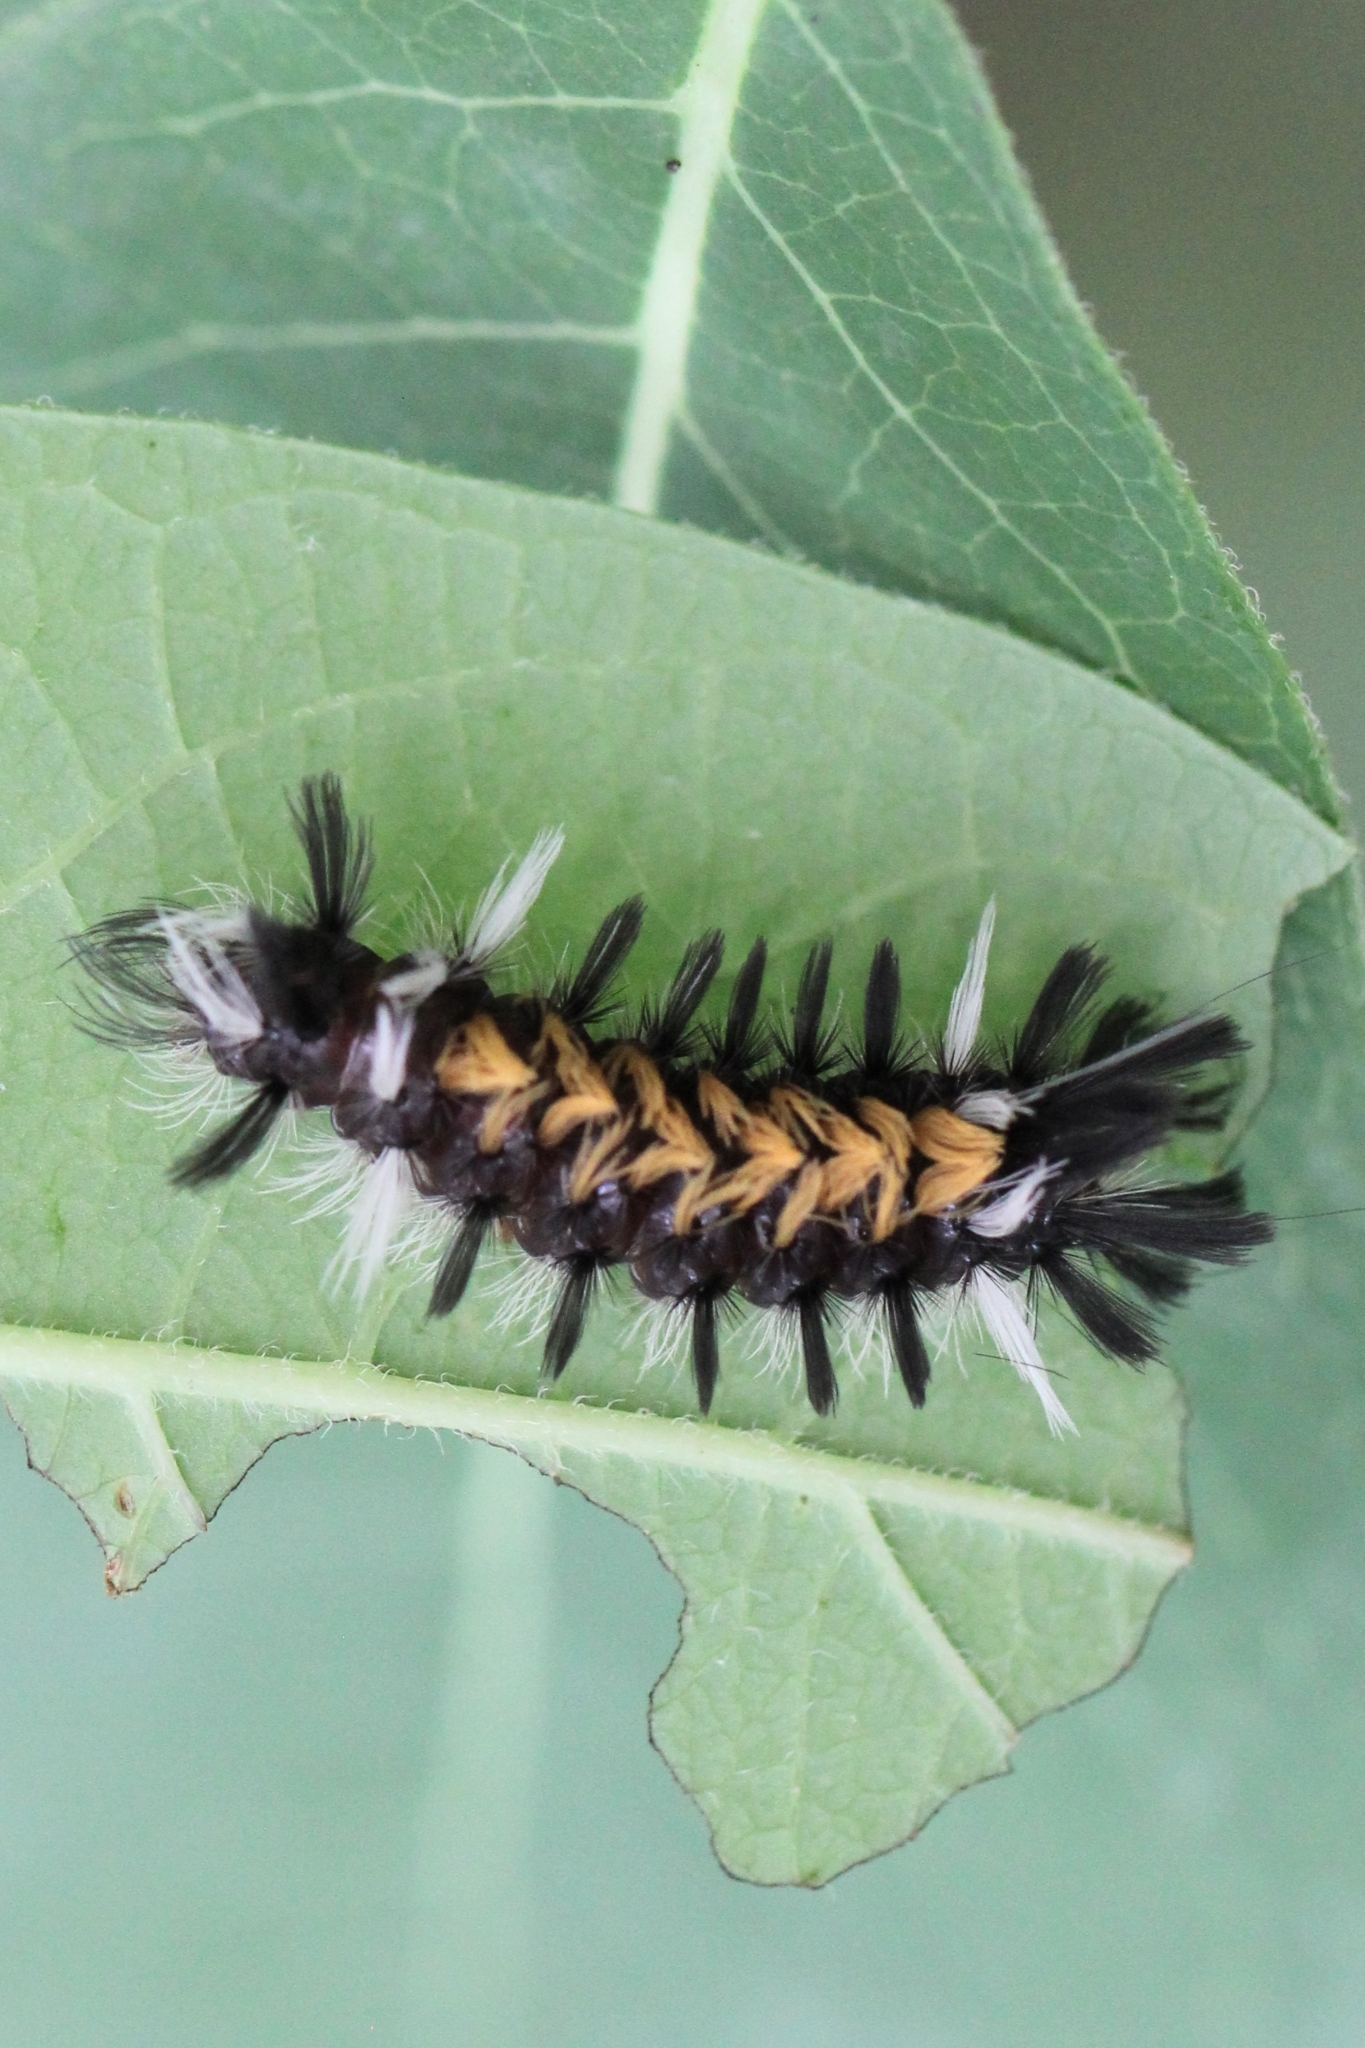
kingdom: Animalia
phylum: Arthropoda
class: Insecta
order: Lepidoptera
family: Erebidae
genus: Euchaetes
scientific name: Euchaetes egle
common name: Milkweed tussock moth
